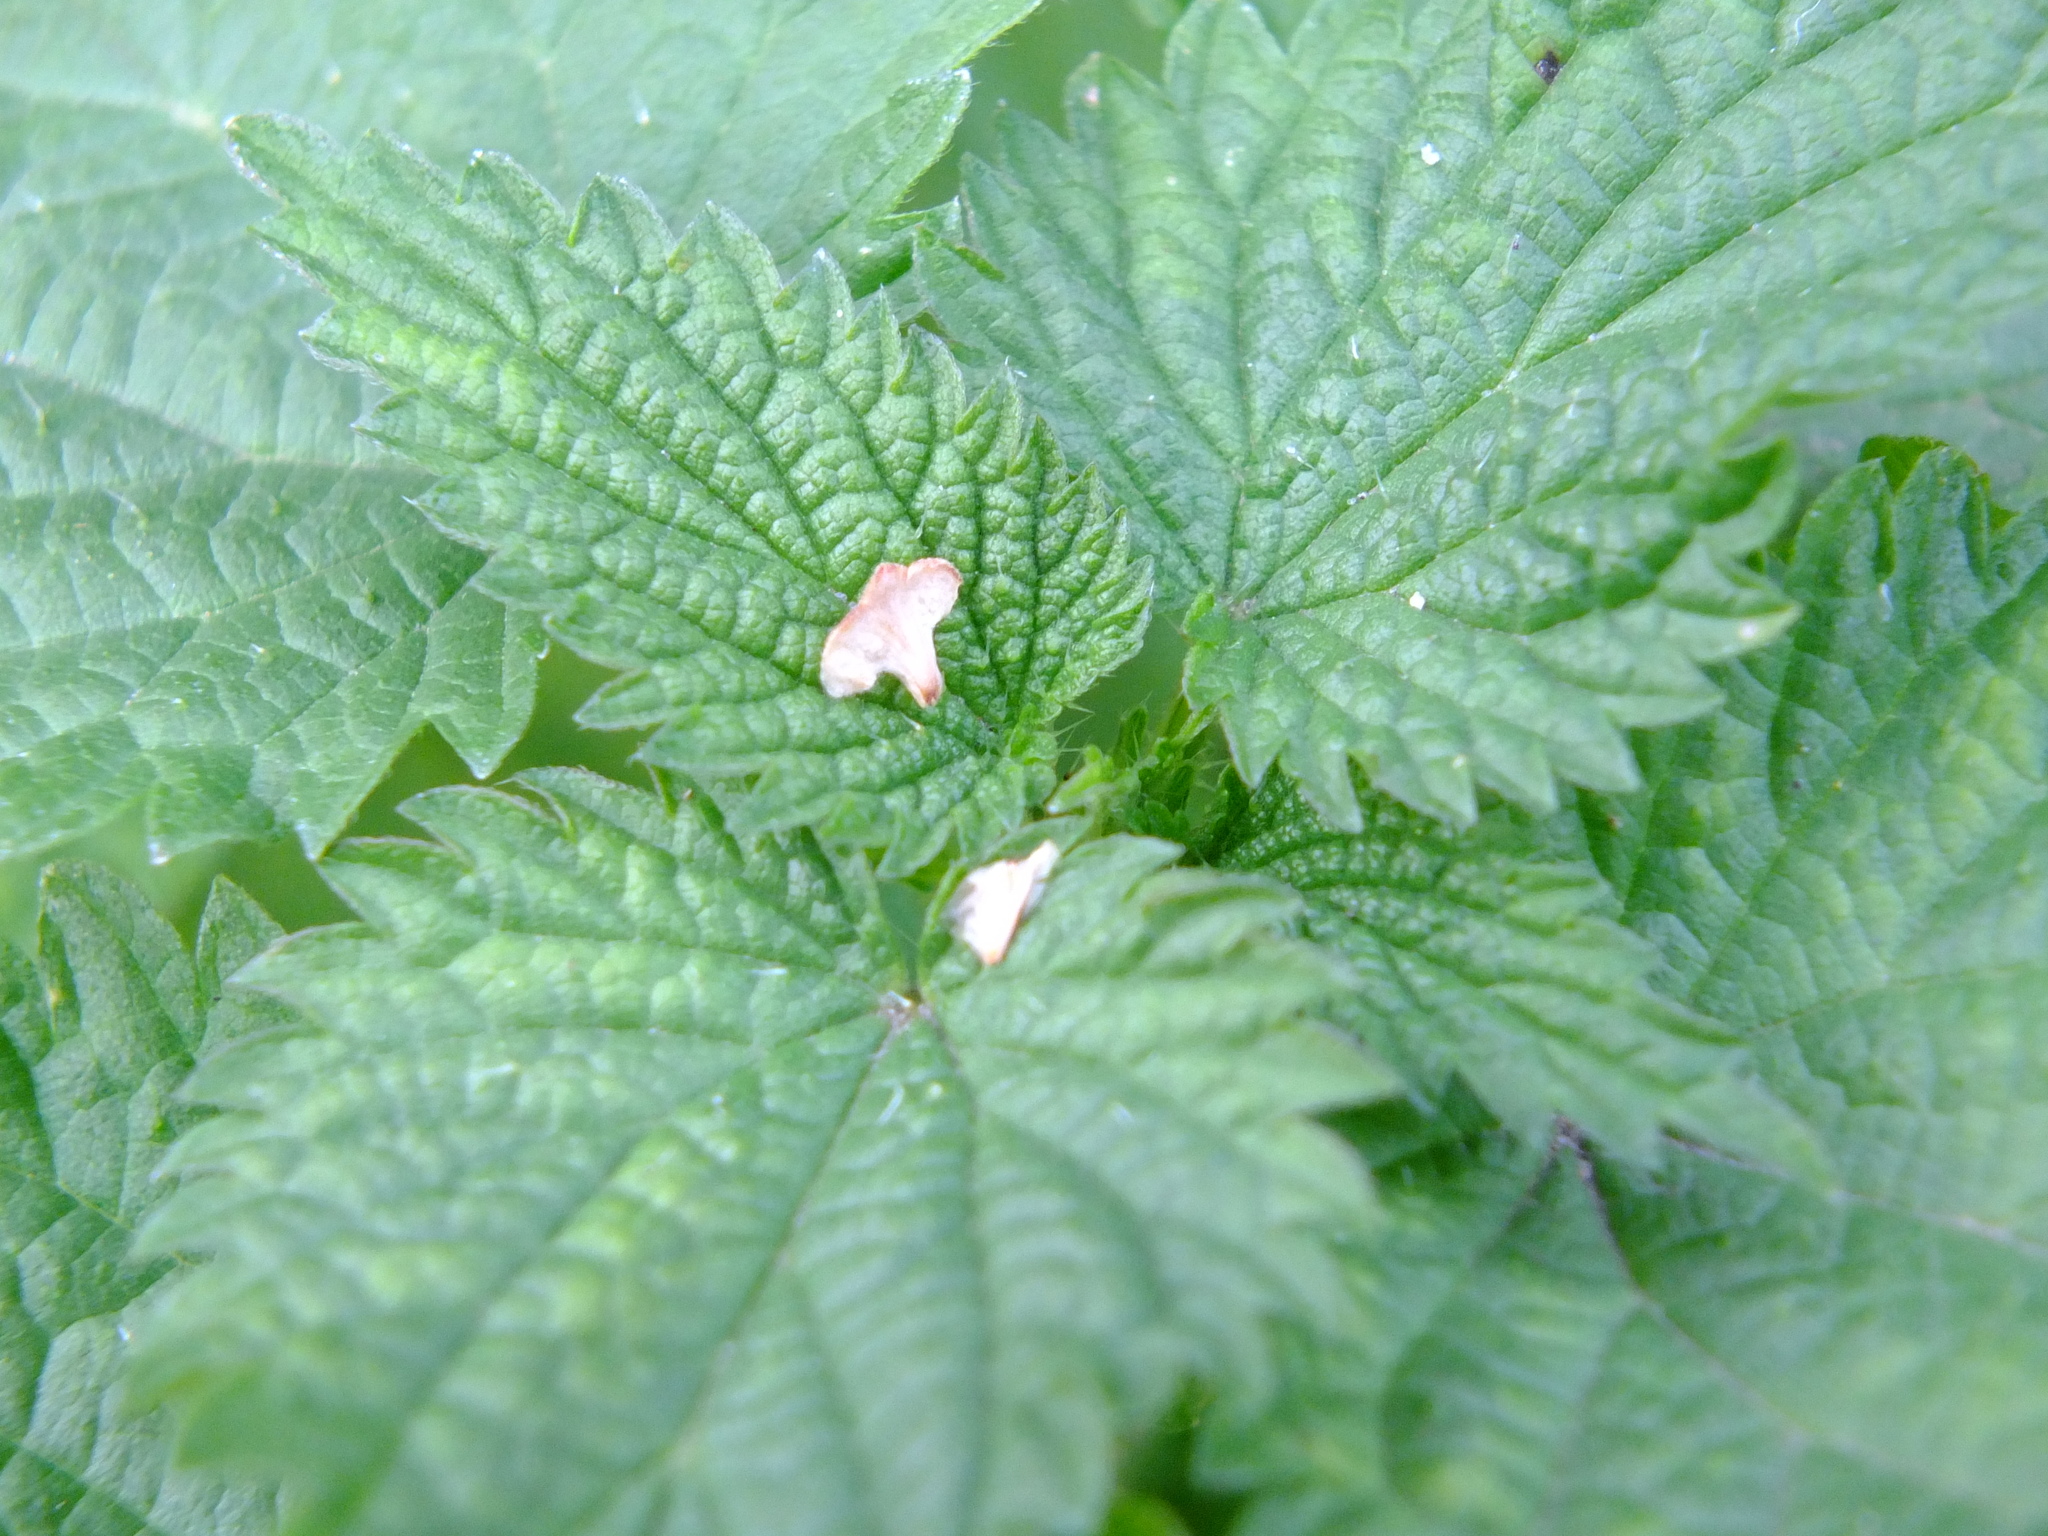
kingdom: Plantae
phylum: Tracheophyta
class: Magnoliopsida
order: Rosales
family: Urticaceae
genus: Urtica
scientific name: Urtica dioica
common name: Common nettle
